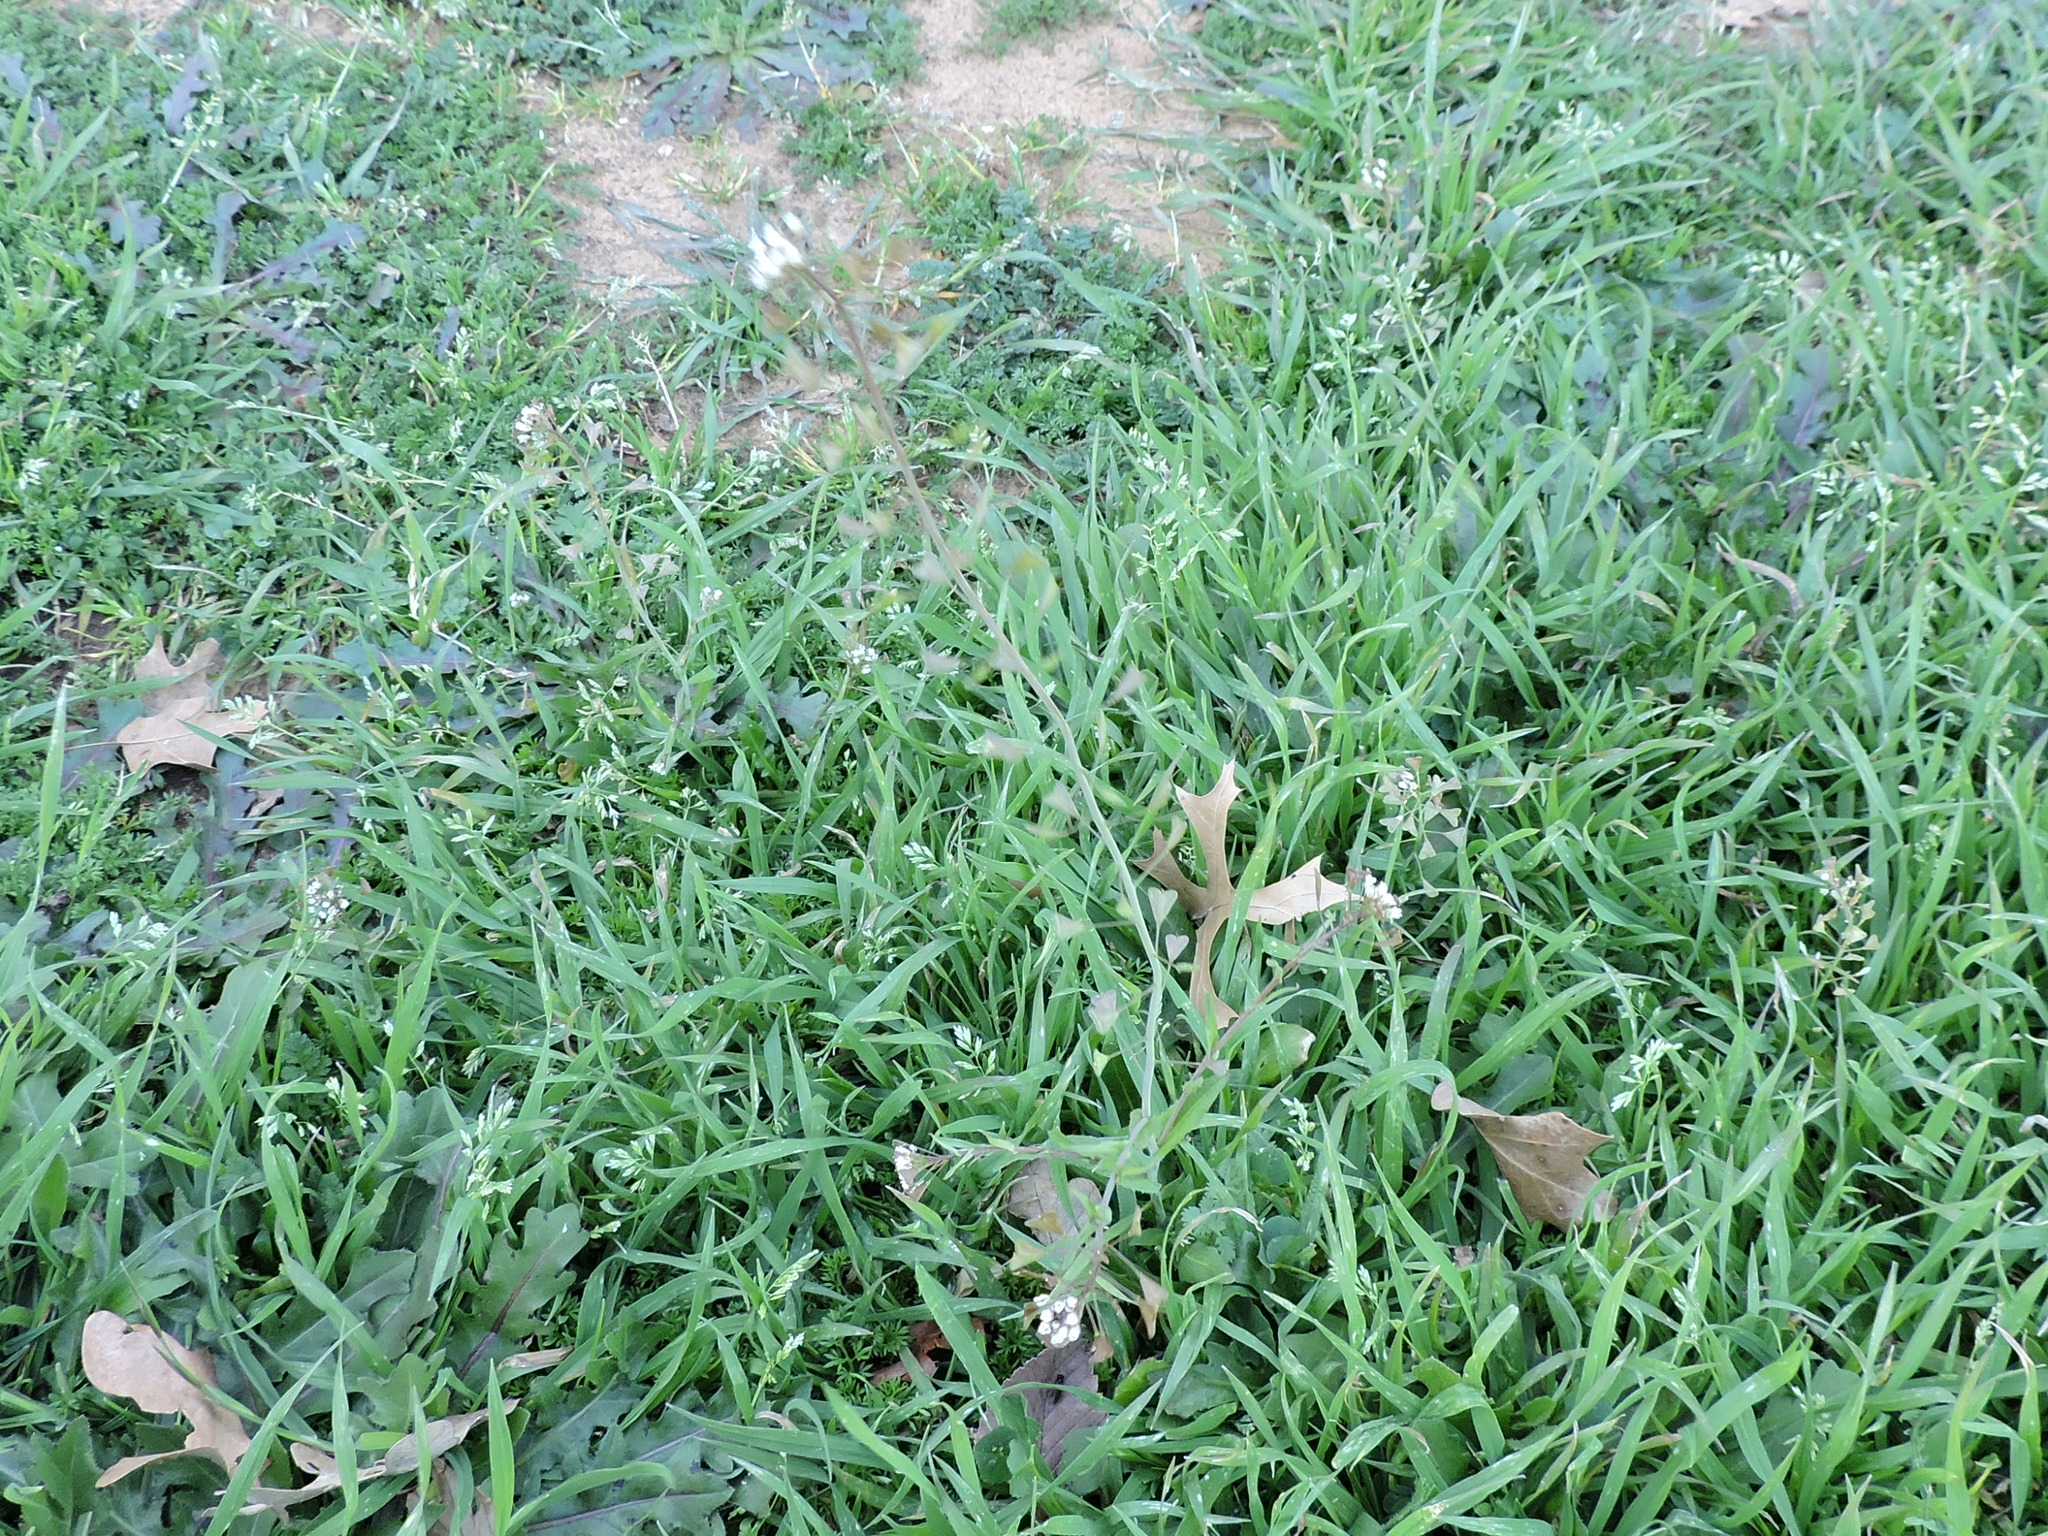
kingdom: Plantae
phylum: Tracheophyta
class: Magnoliopsida
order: Brassicales
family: Brassicaceae
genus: Capsella
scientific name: Capsella bursa-pastoris
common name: Shepherd's purse
